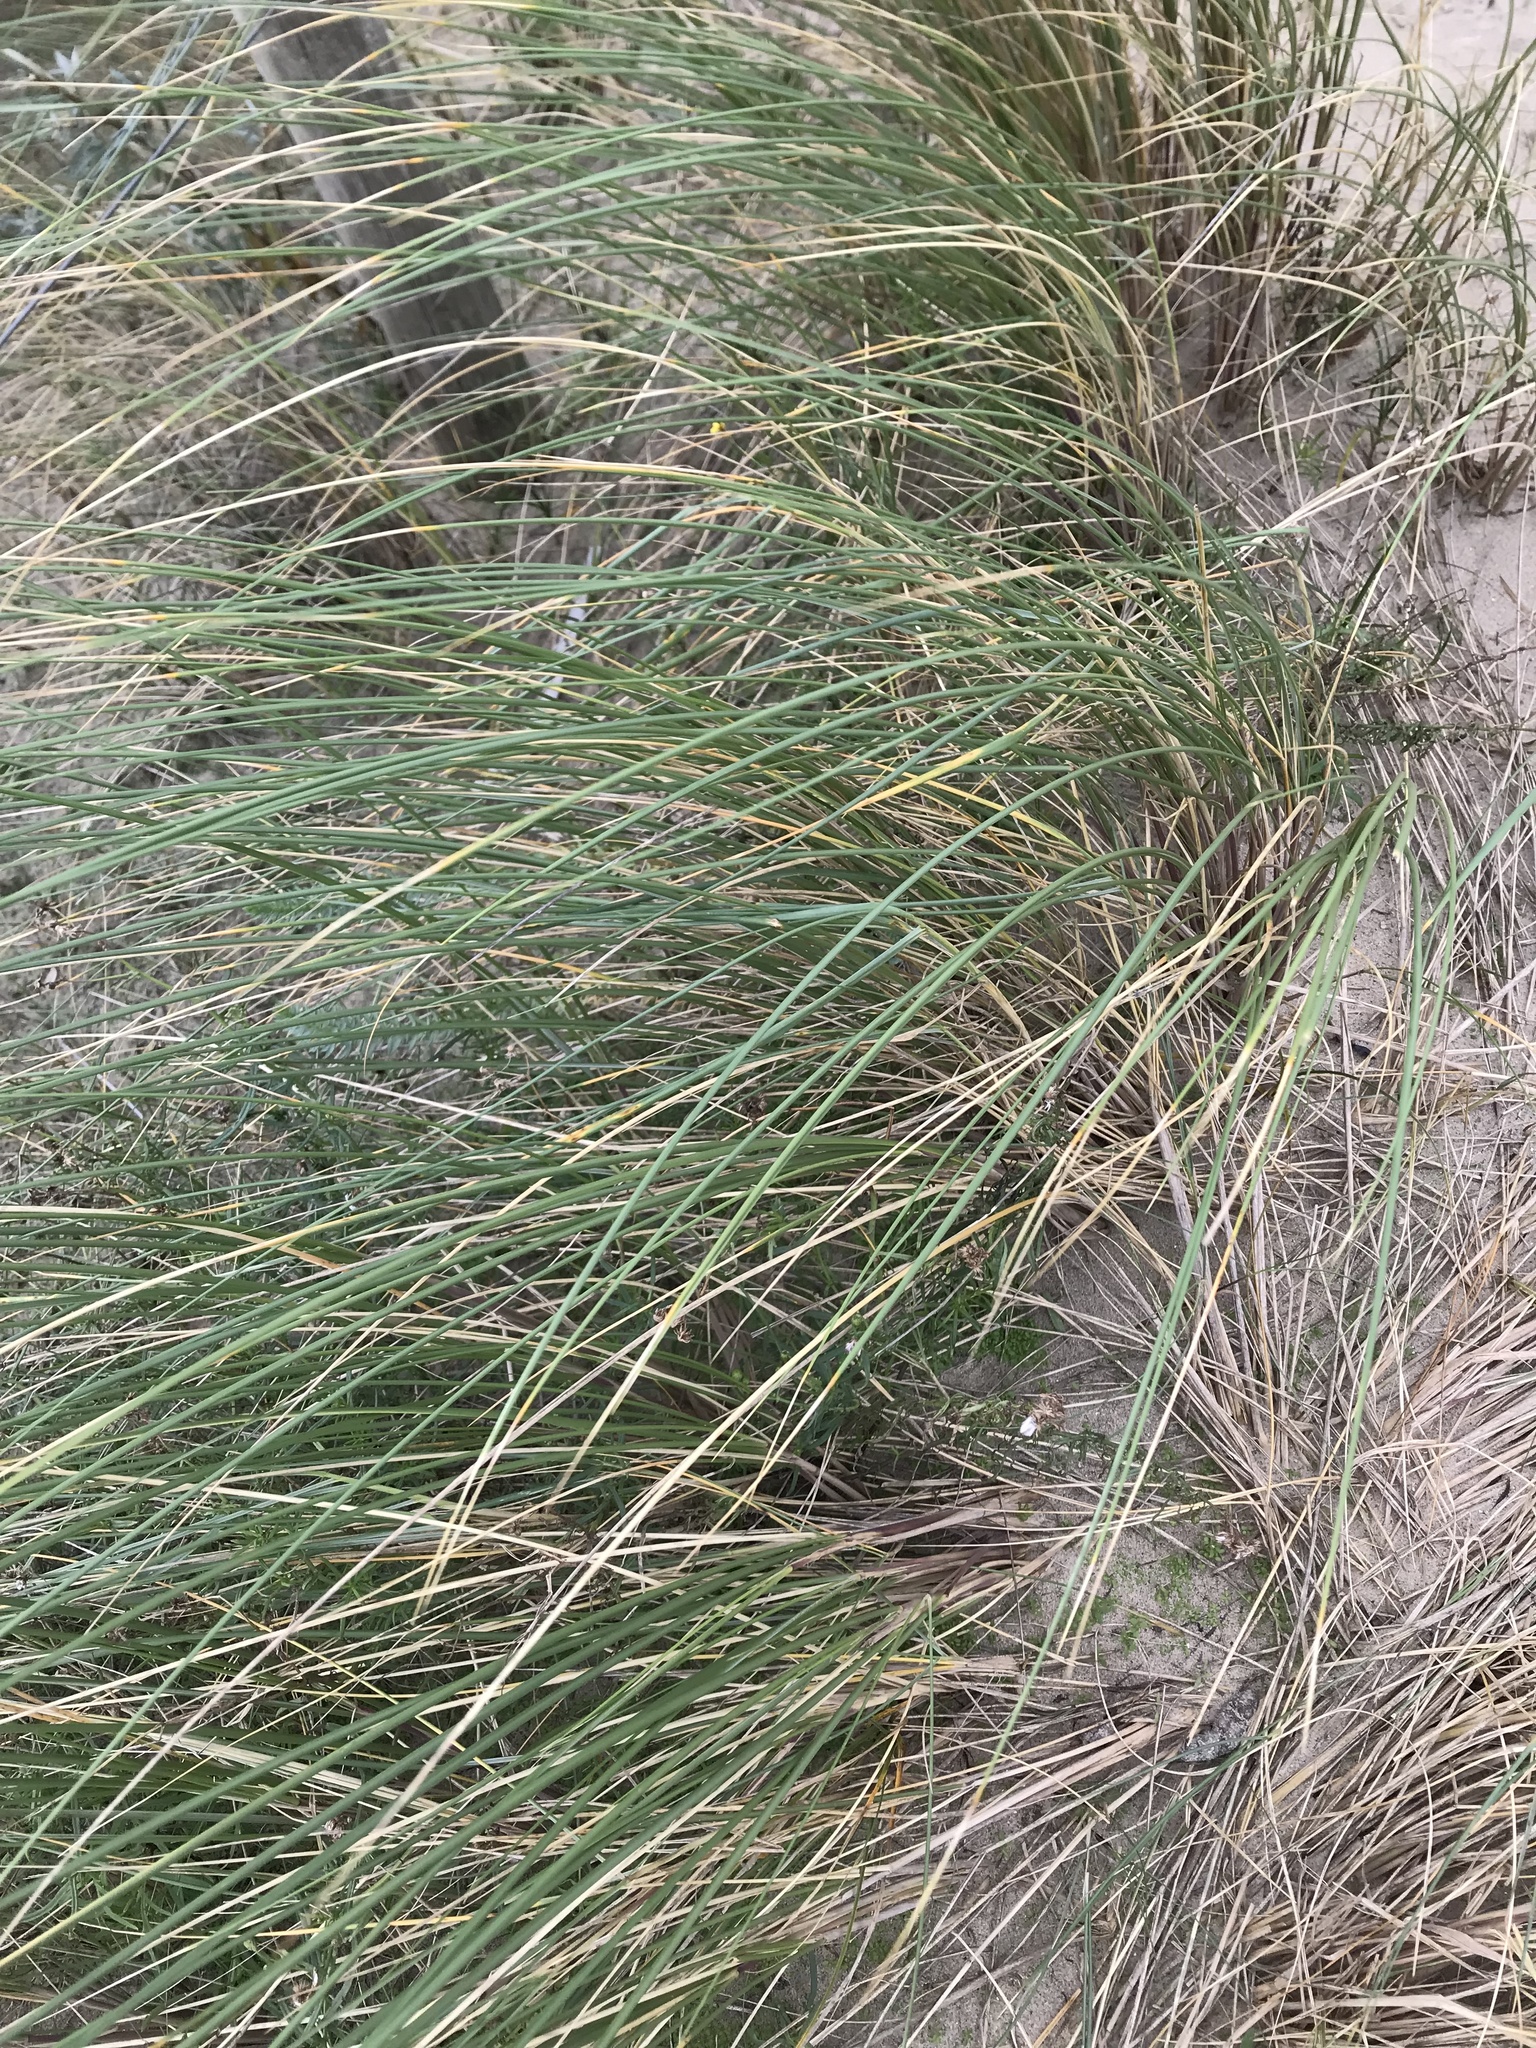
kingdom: Plantae
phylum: Tracheophyta
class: Liliopsida
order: Poales
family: Poaceae
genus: Calamagrostis
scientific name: Calamagrostis arenaria
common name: European beachgrass
